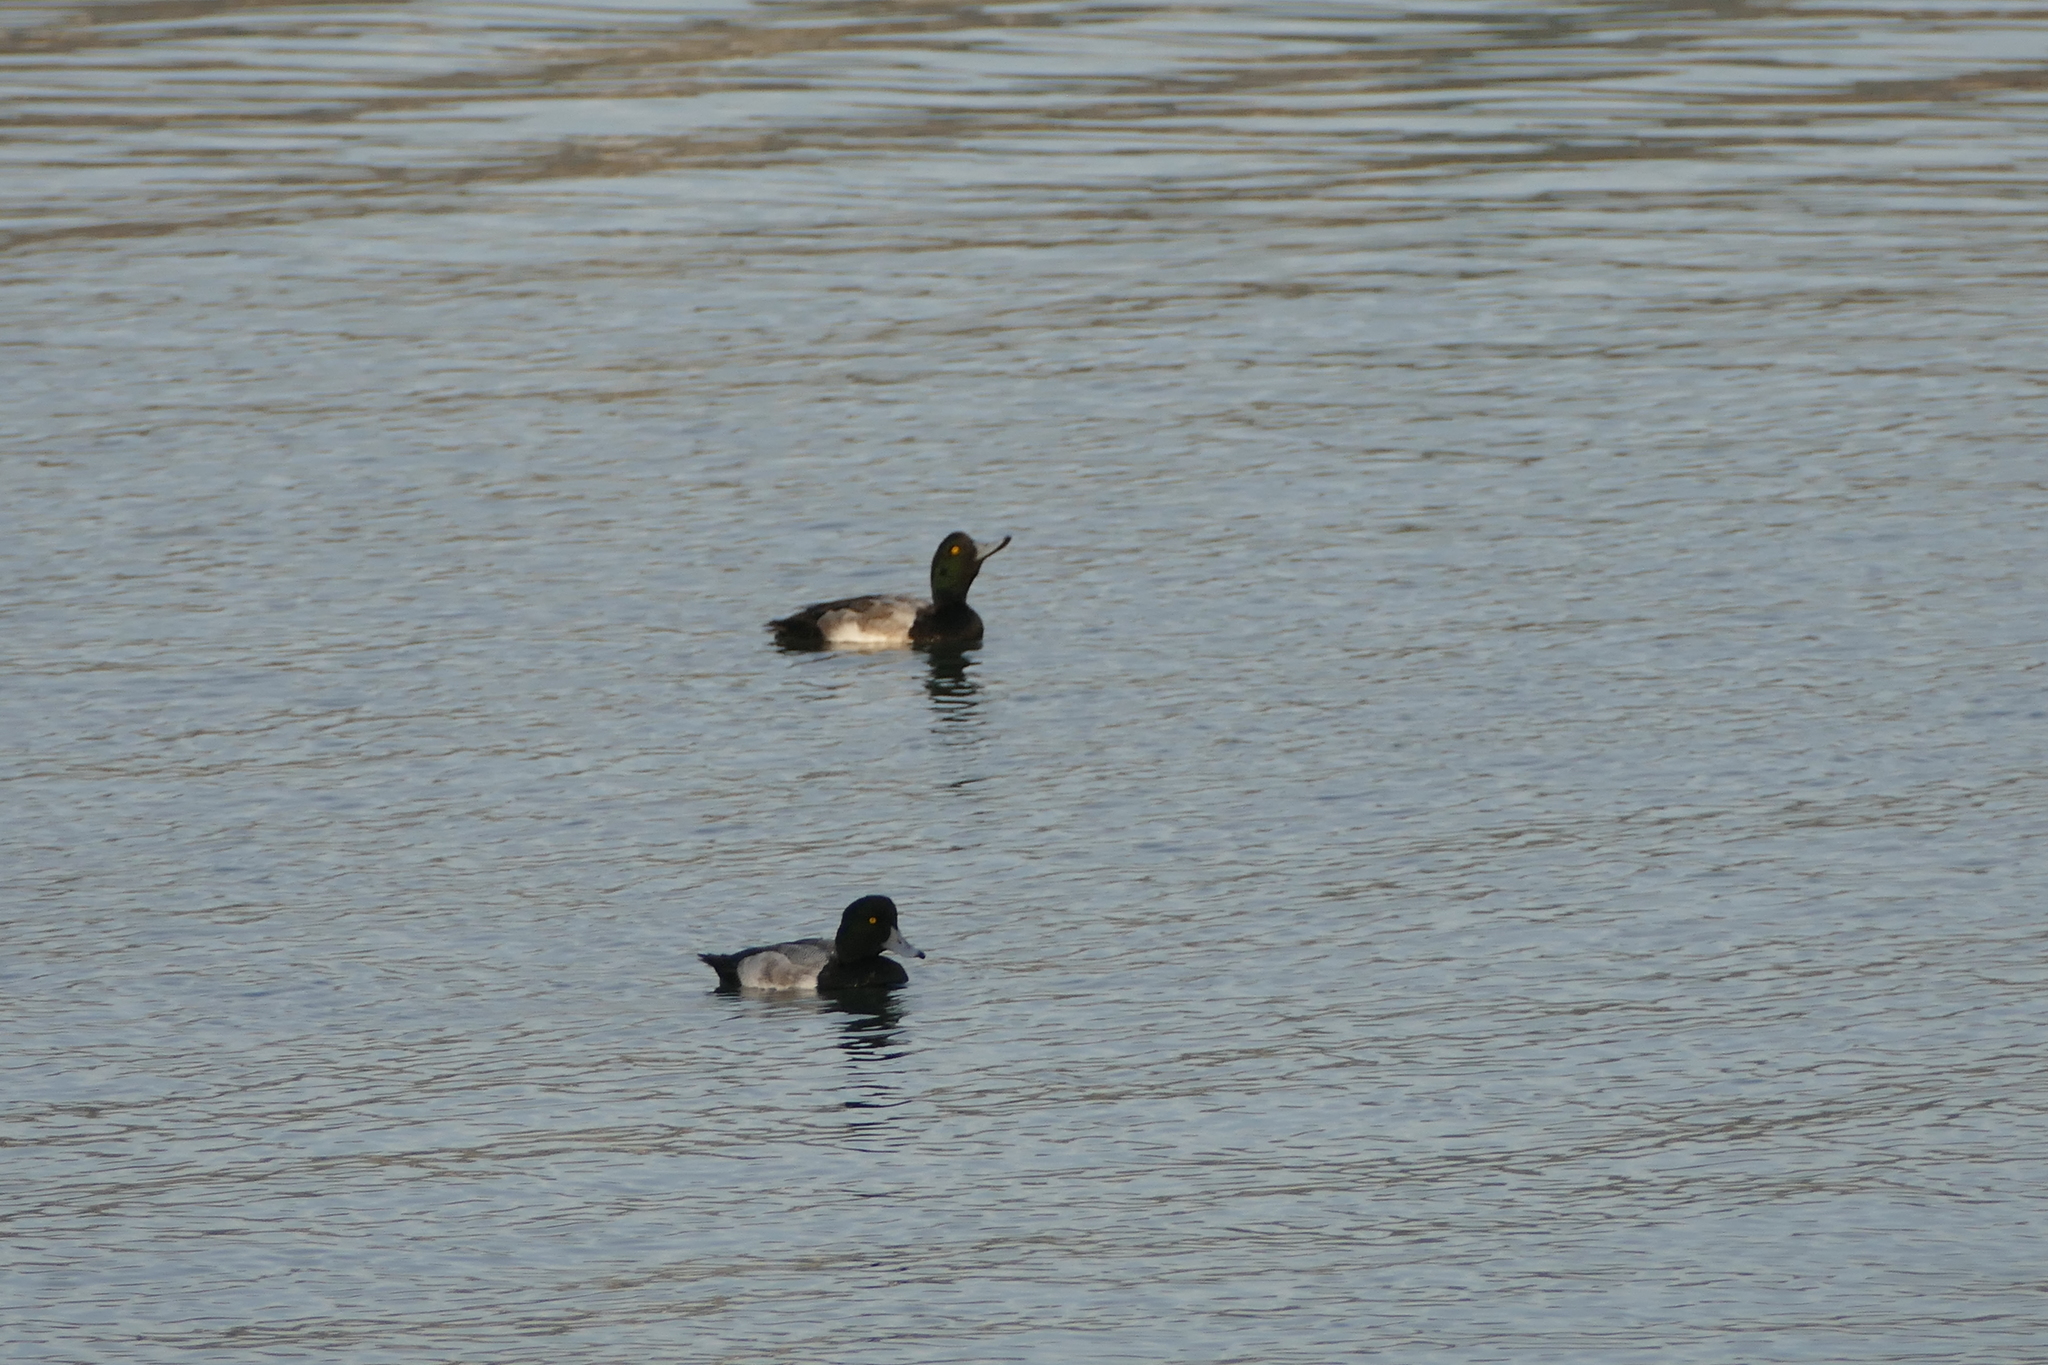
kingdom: Animalia
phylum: Chordata
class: Aves
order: Anseriformes
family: Anatidae
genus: Aythya
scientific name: Aythya marila
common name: Greater scaup
